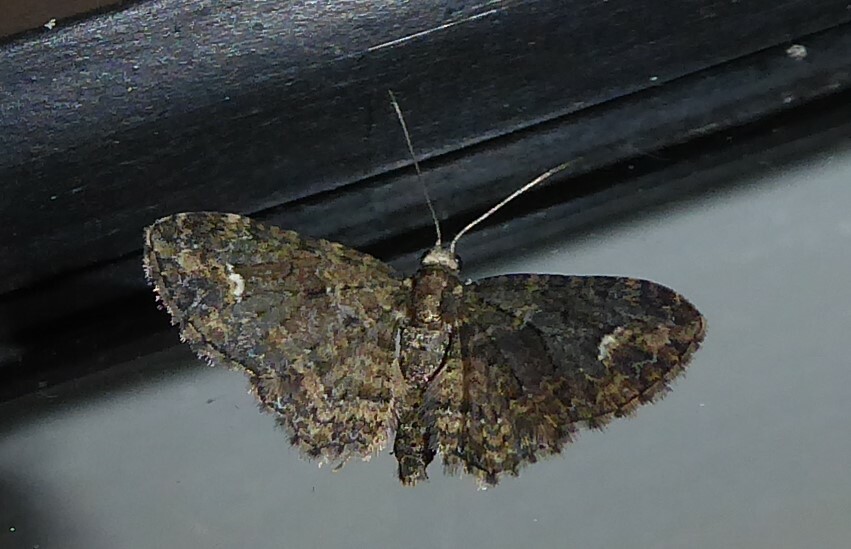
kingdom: Animalia
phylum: Arthropoda
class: Insecta
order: Lepidoptera
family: Geometridae
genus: Pasiphilodes
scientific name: Pasiphilodes testulata
